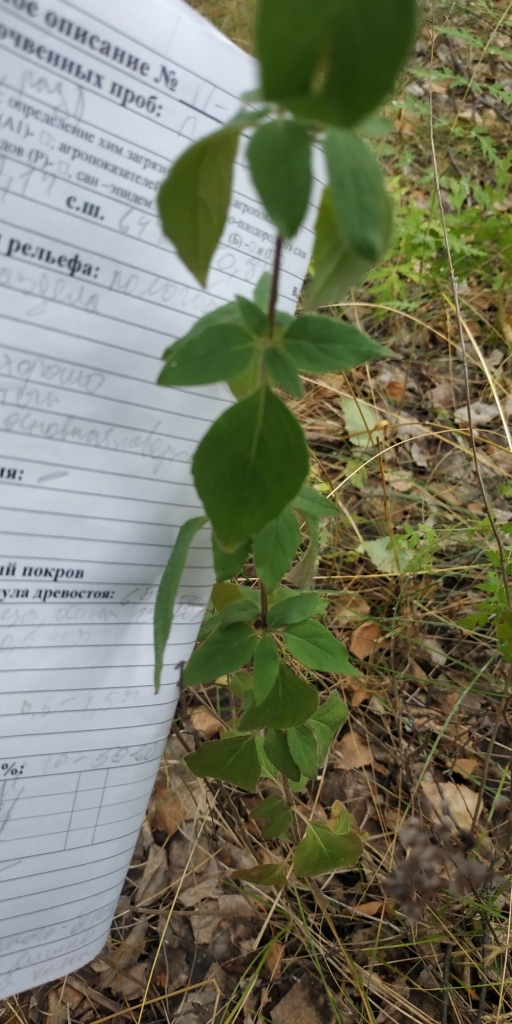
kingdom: Plantae
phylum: Tracheophyta
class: Magnoliopsida
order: Lamiales
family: Lamiaceae
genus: Origanum
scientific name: Origanum vulgare
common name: Wild marjoram
